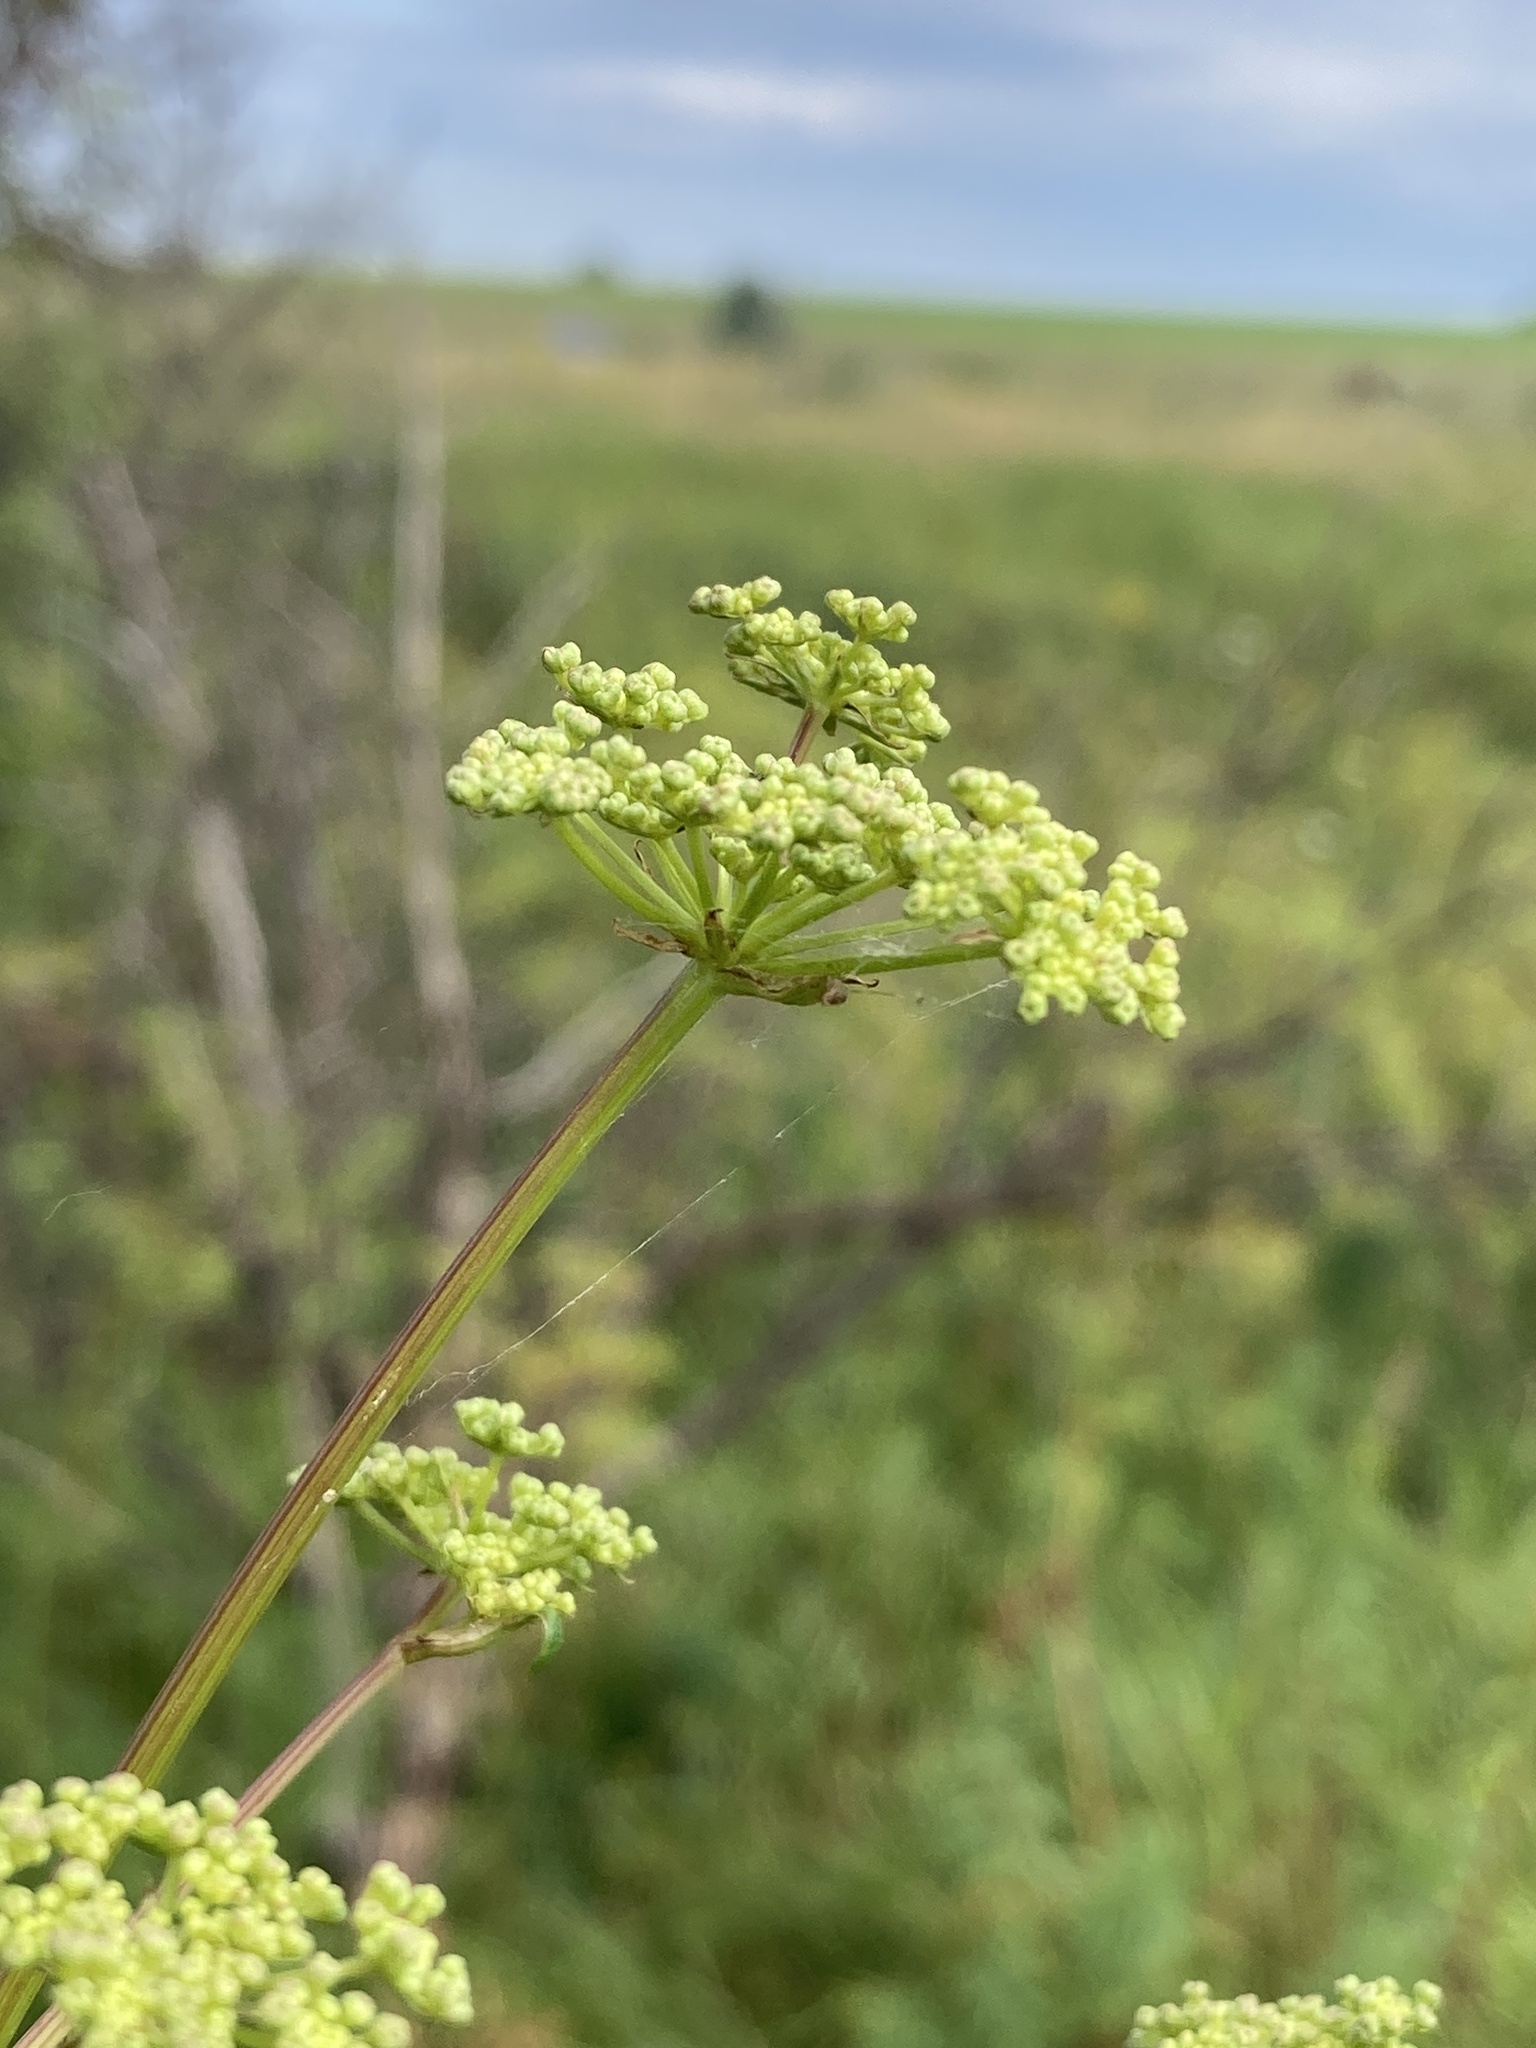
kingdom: Plantae
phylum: Tracheophyta
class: Magnoliopsida
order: Apiales
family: Apiaceae
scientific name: Apiaceae
